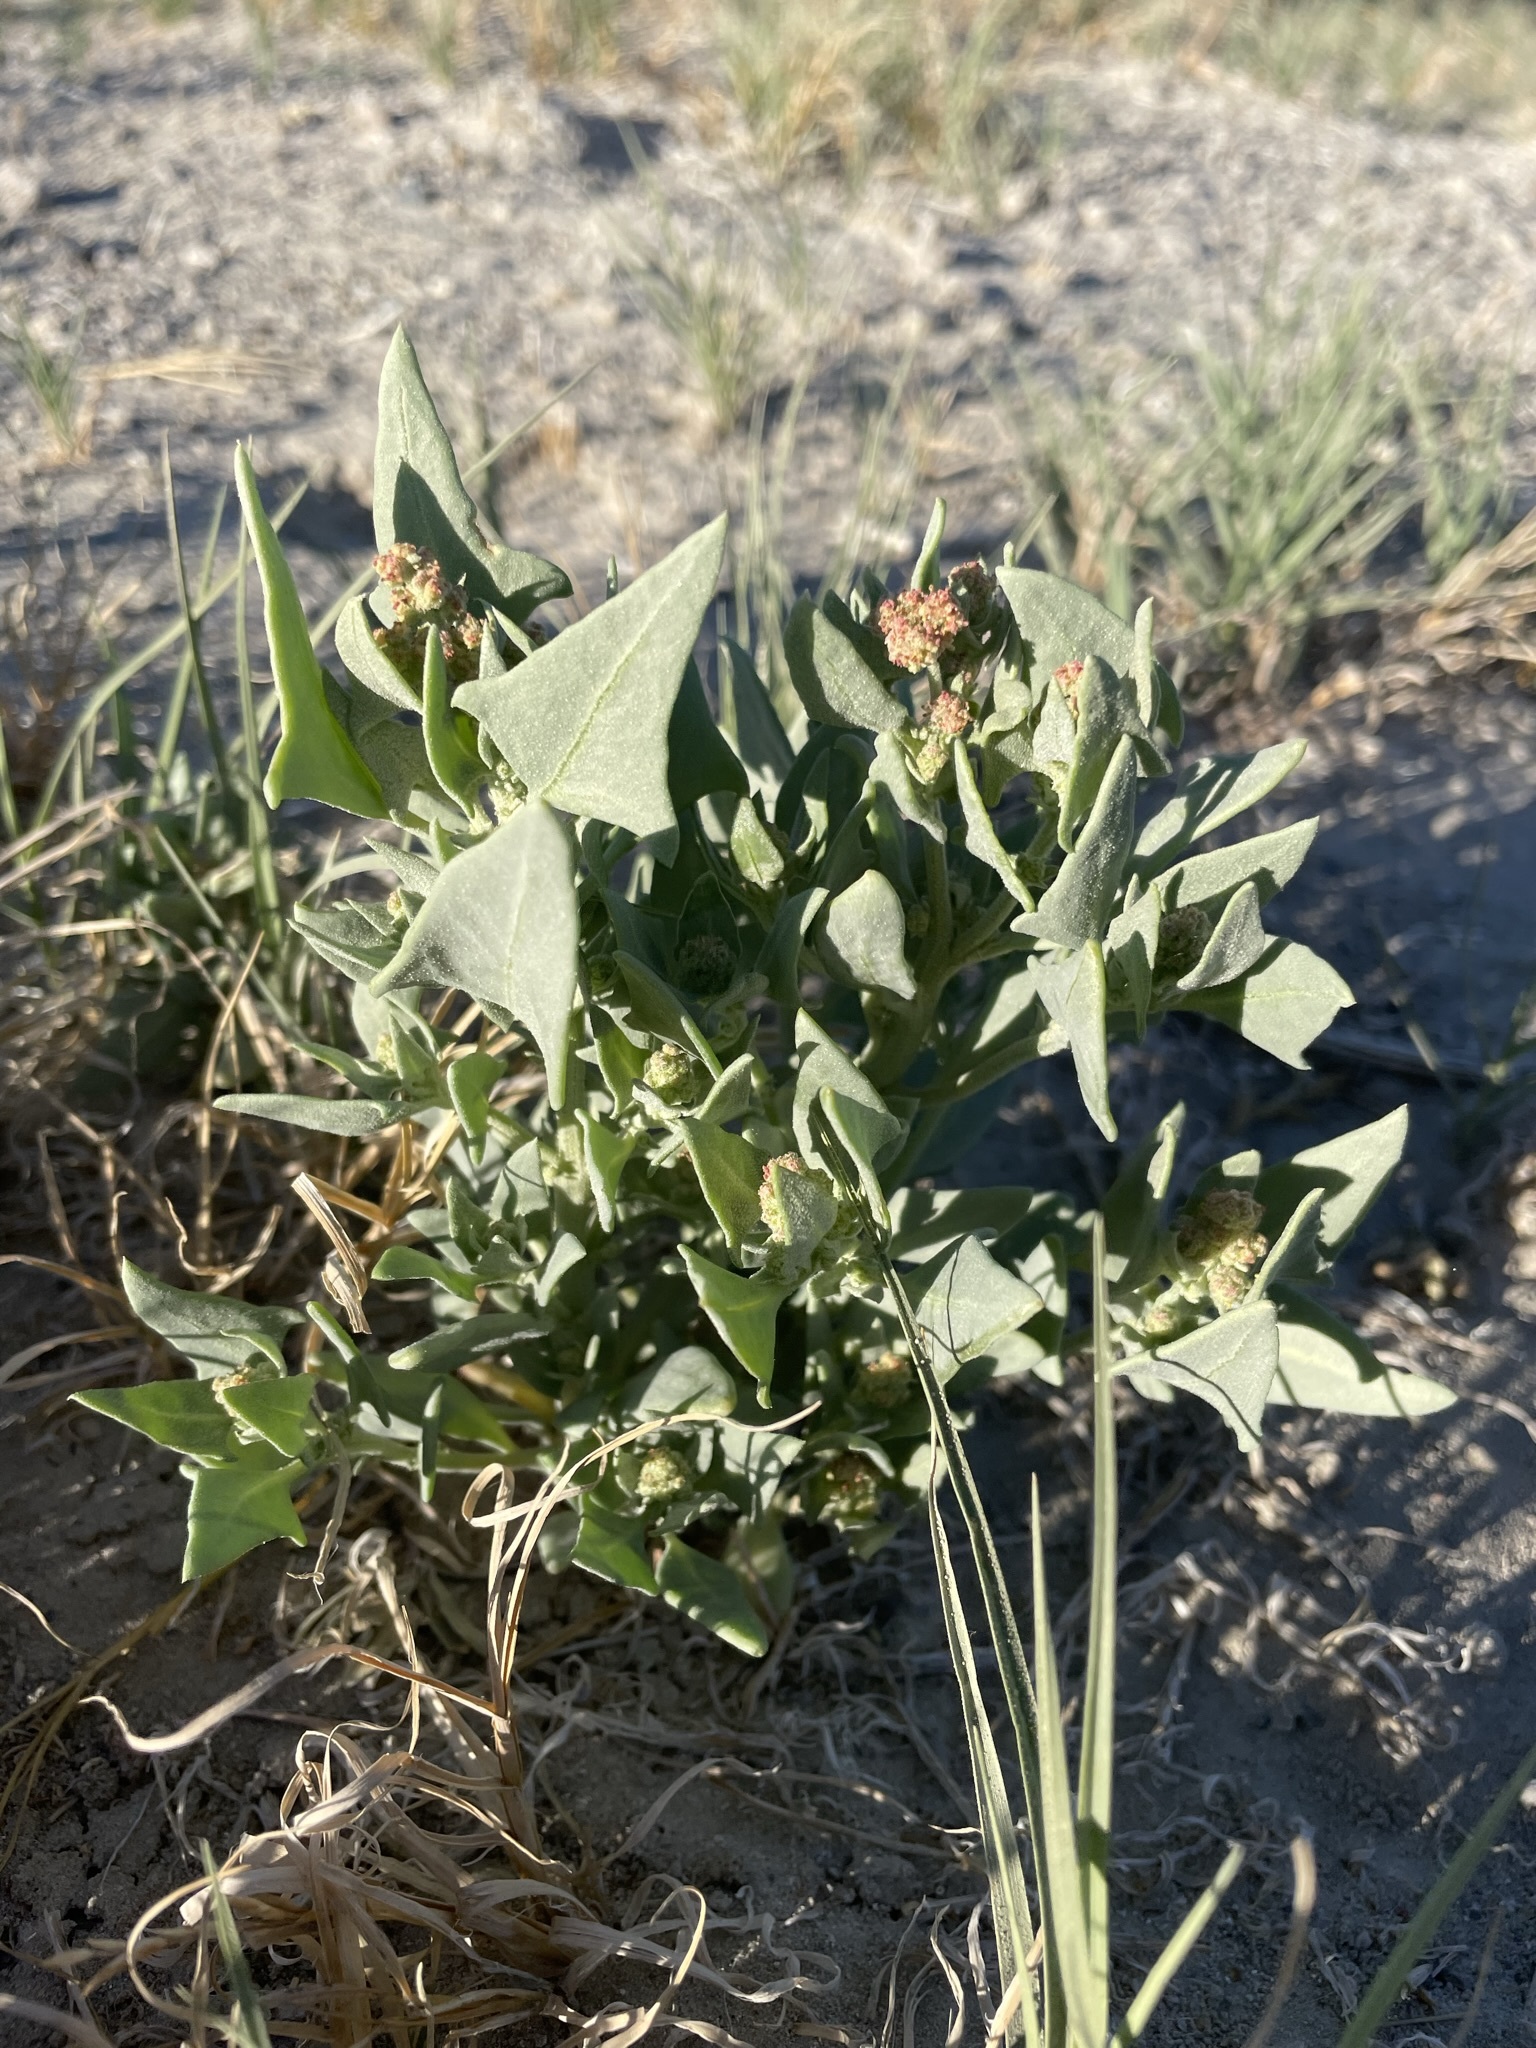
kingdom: Plantae
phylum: Tracheophyta
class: Magnoliopsida
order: Caryophyllales
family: Amaranthaceae
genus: Stutzia
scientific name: Stutzia covillei
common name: Coville's orach
